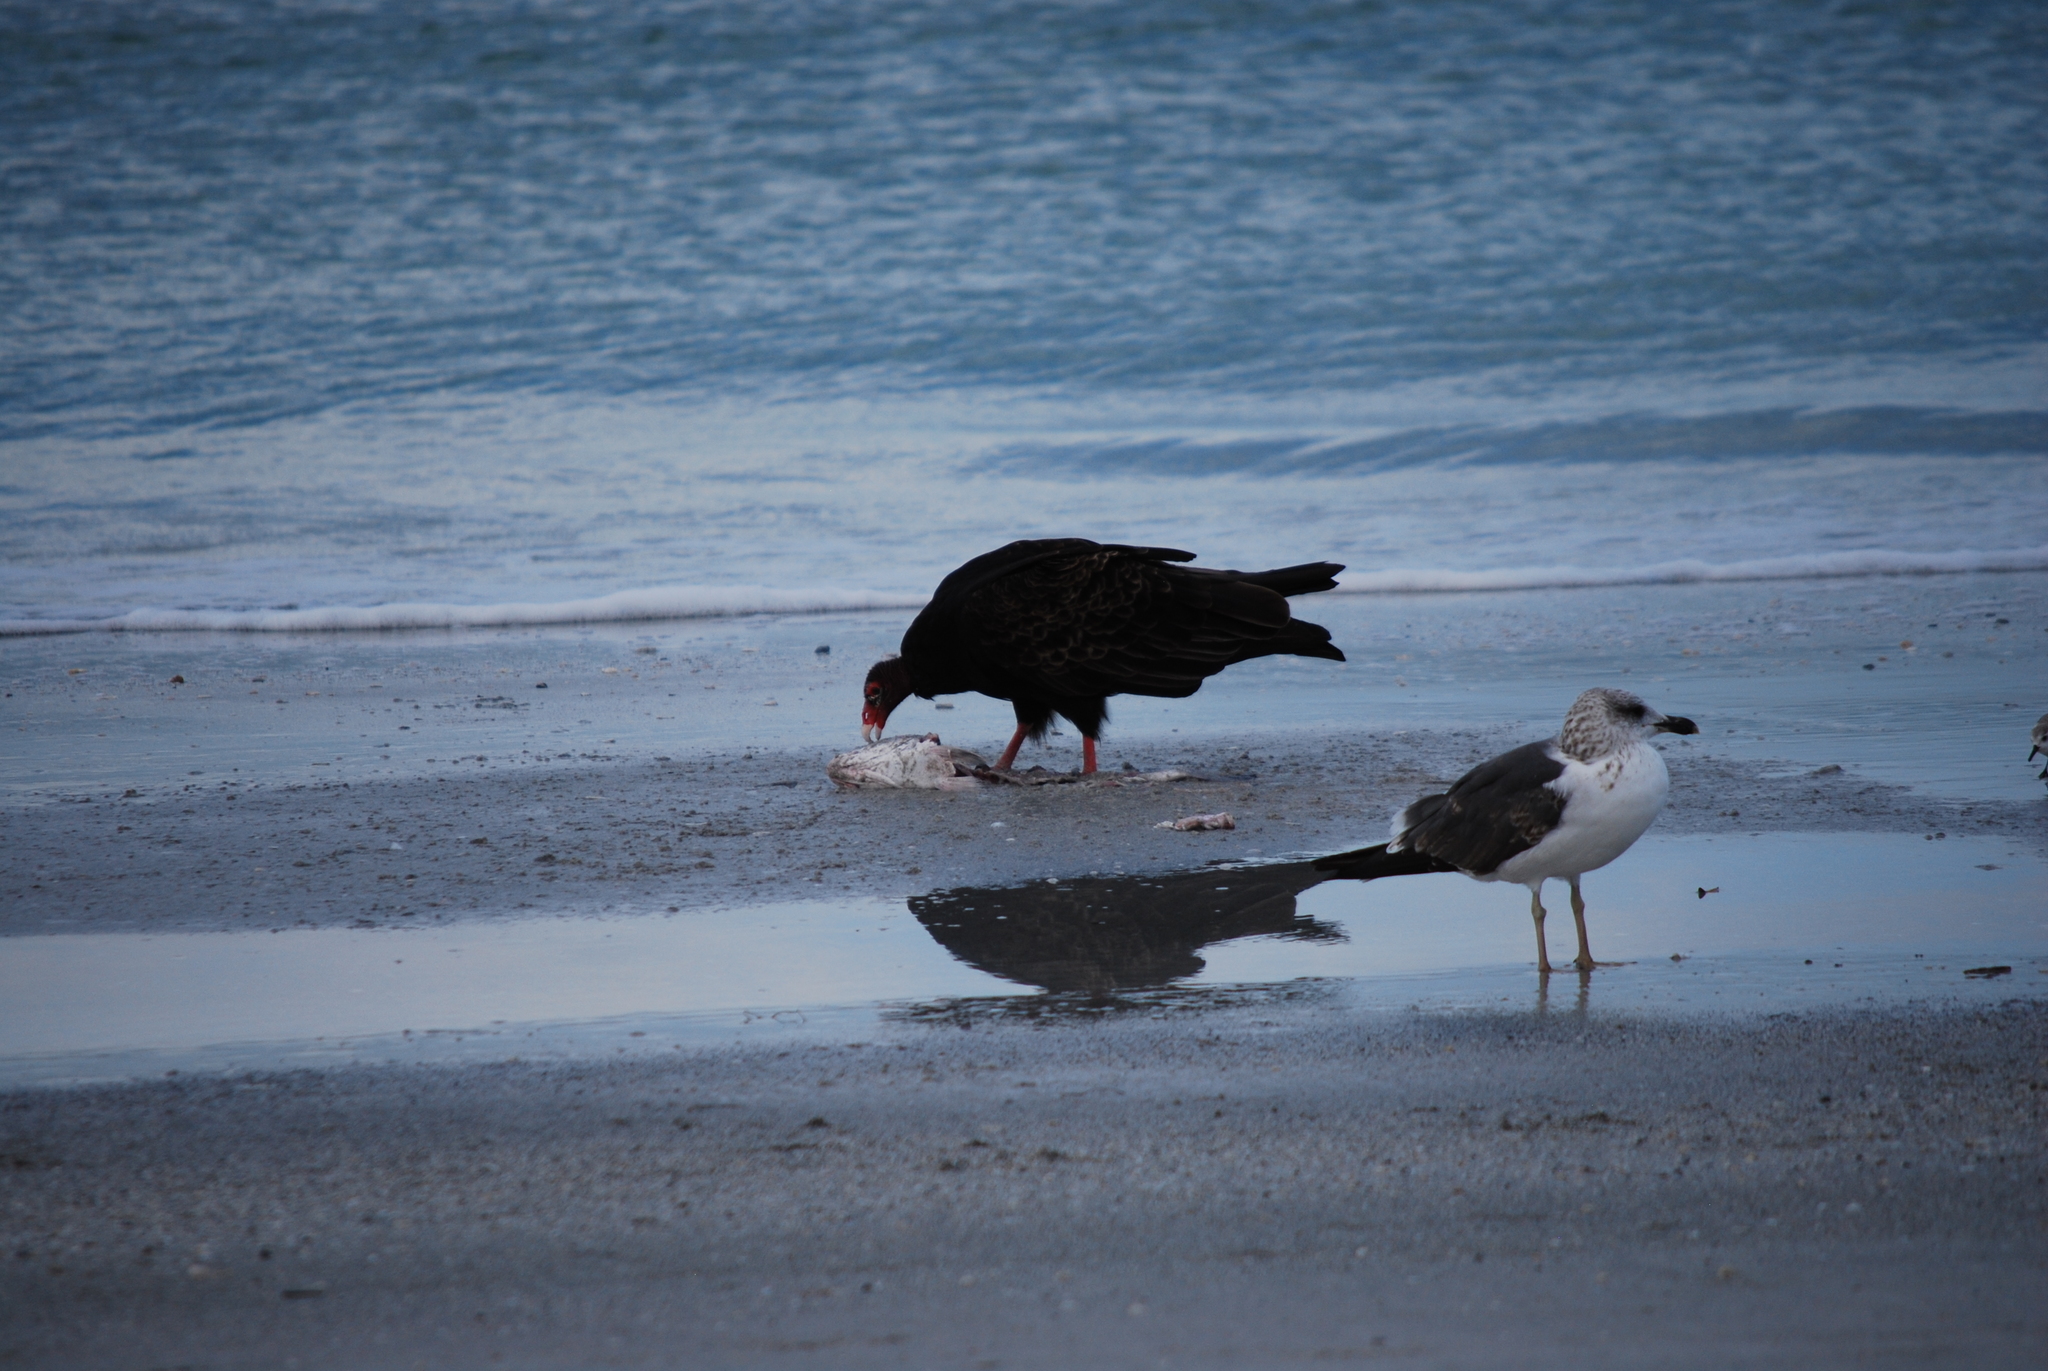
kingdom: Animalia
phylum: Chordata
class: Aves
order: Charadriiformes
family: Laridae
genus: Larus
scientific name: Larus fuscus
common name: Lesser black-backed gull
